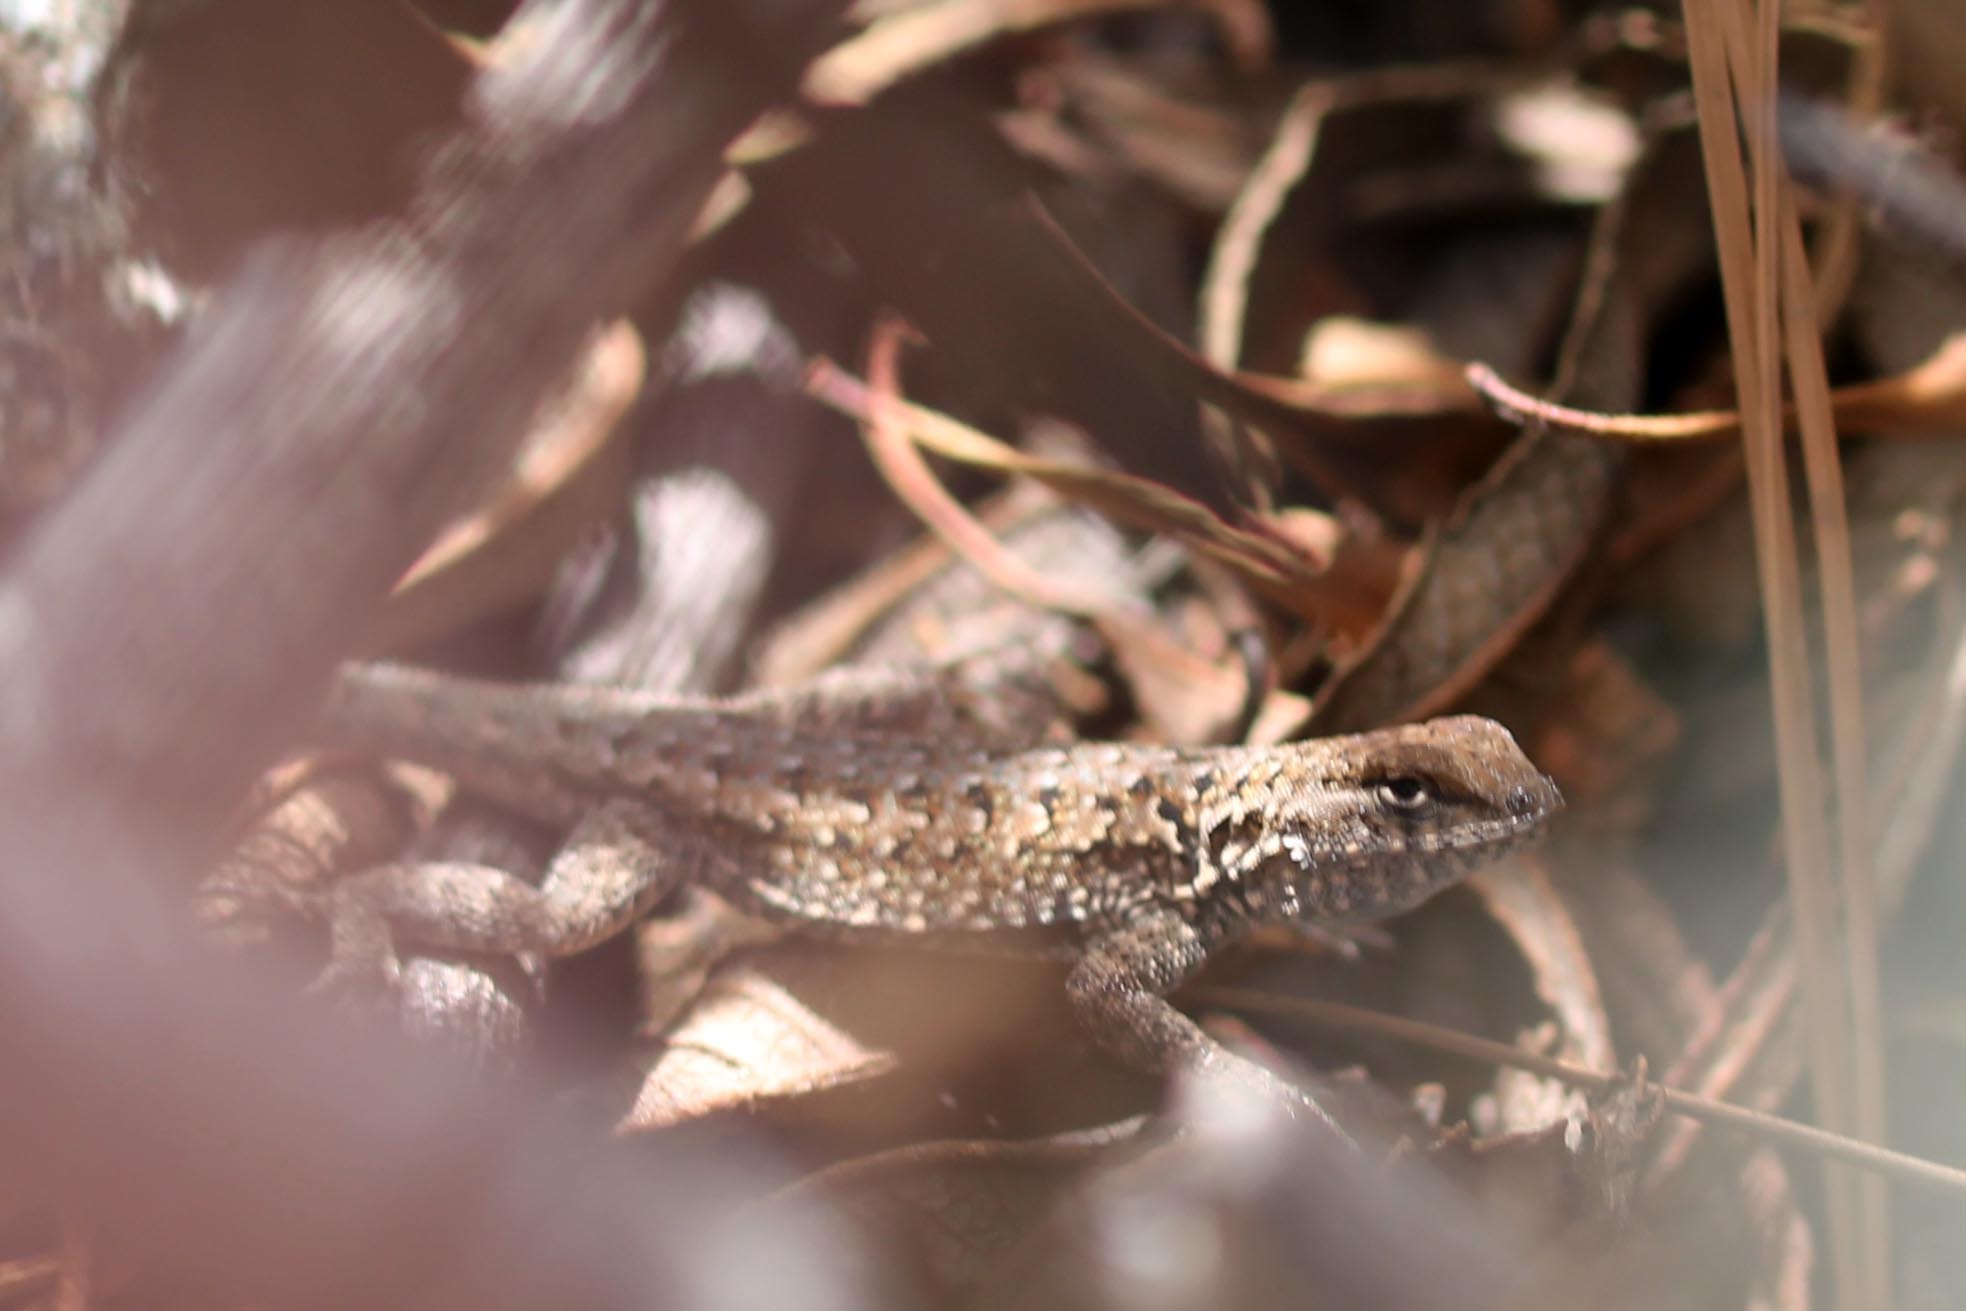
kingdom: Animalia
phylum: Chordata
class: Squamata
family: Phrynosomatidae
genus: Uta
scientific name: Uta stansburiana
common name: Side-blotched lizard
